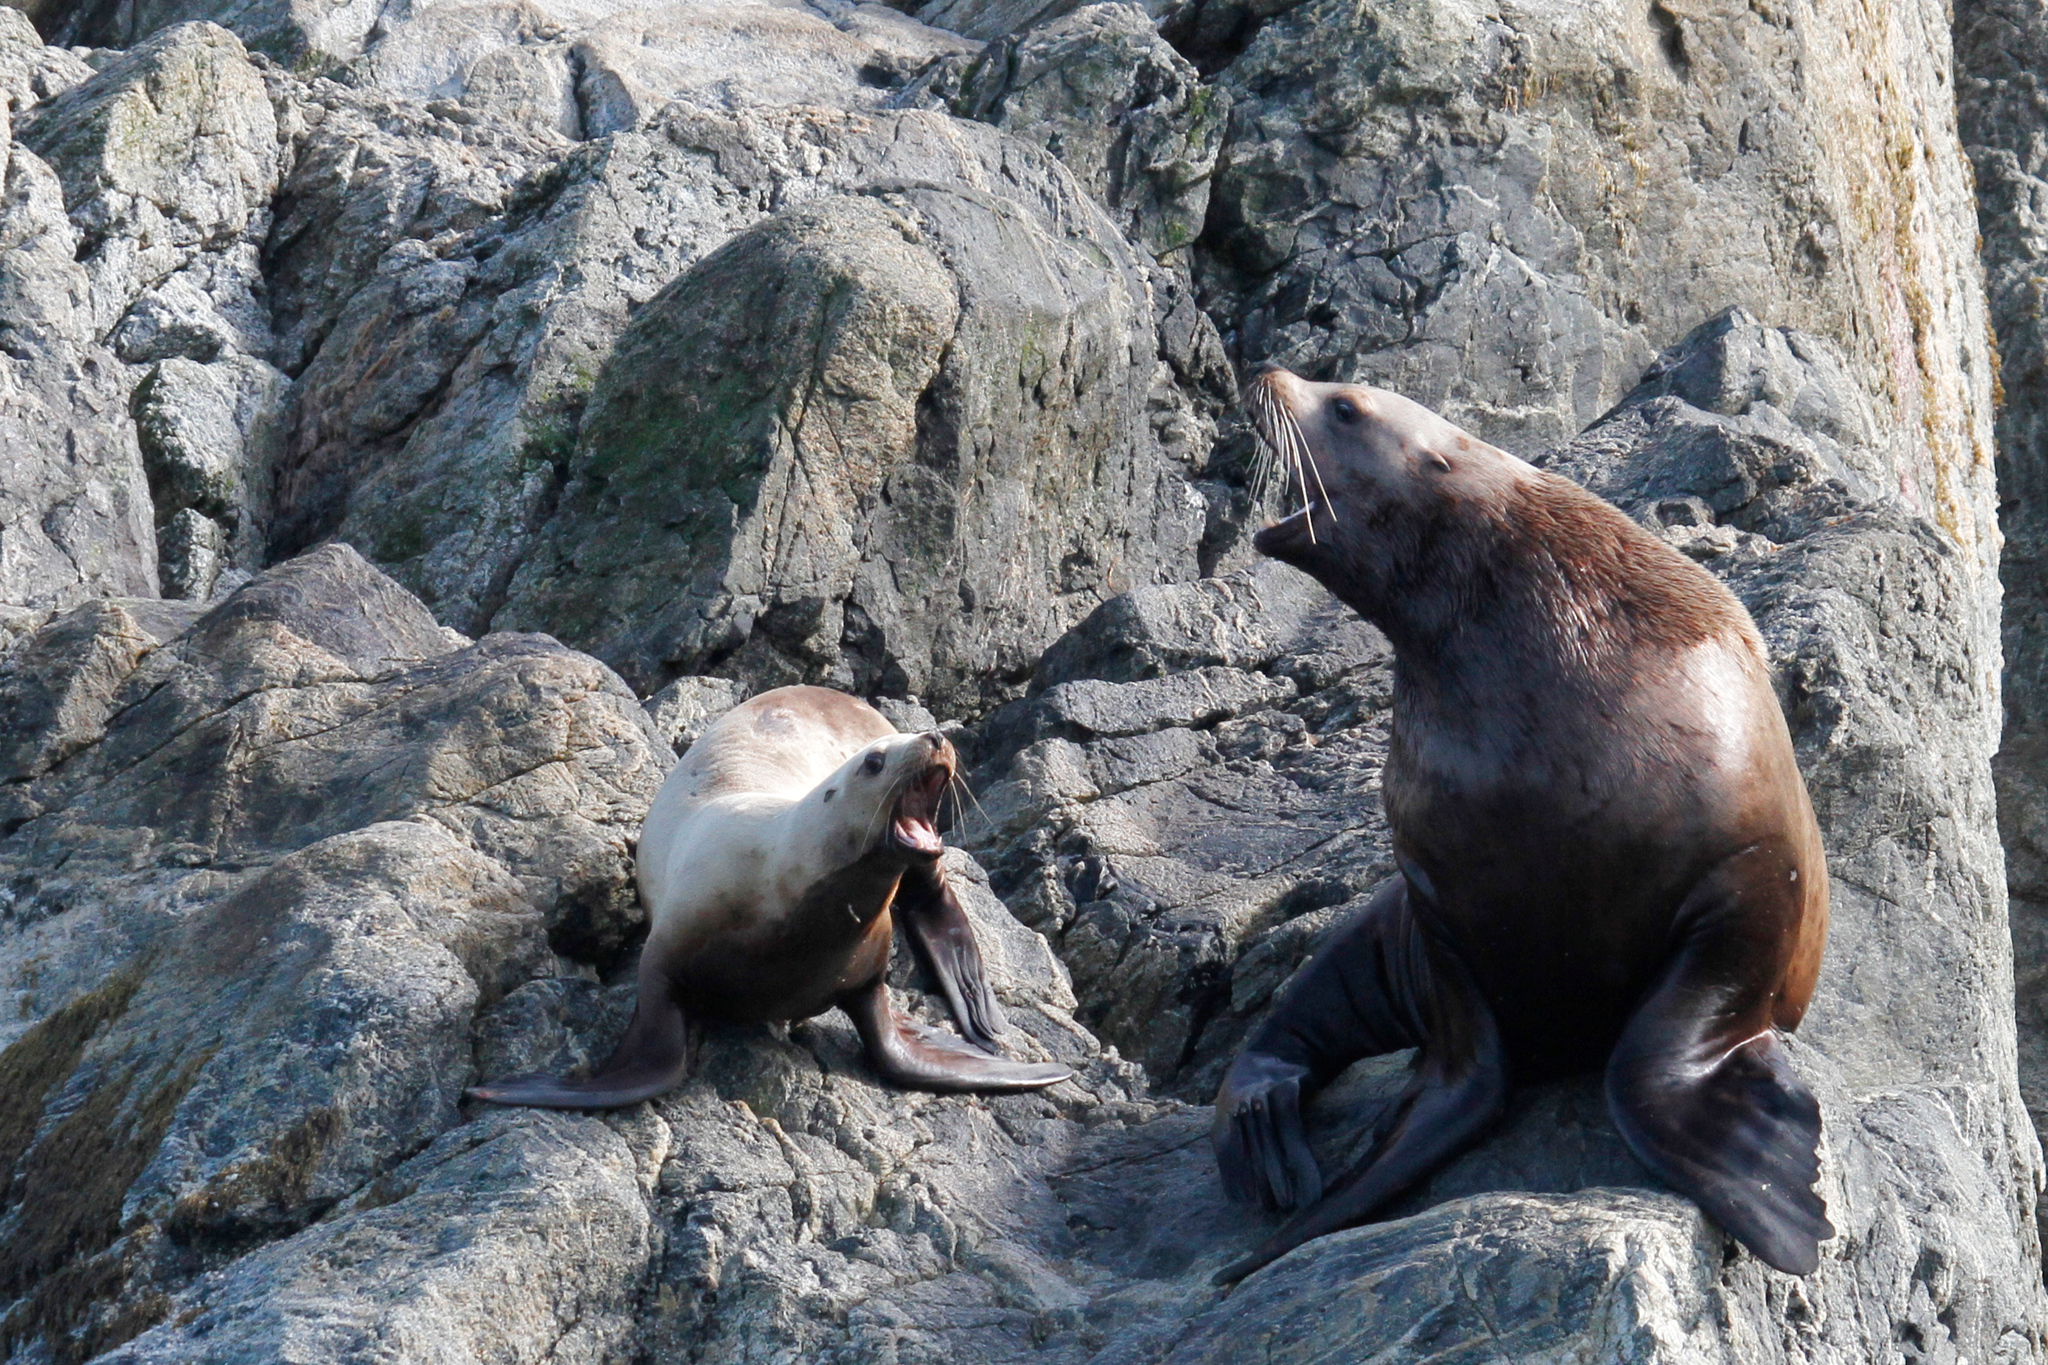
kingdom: Animalia
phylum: Chordata
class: Mammalia
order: Carnivora
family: Otariidae
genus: Eumetopias
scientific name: Eumetopias jubatus
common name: Steller sea lion
